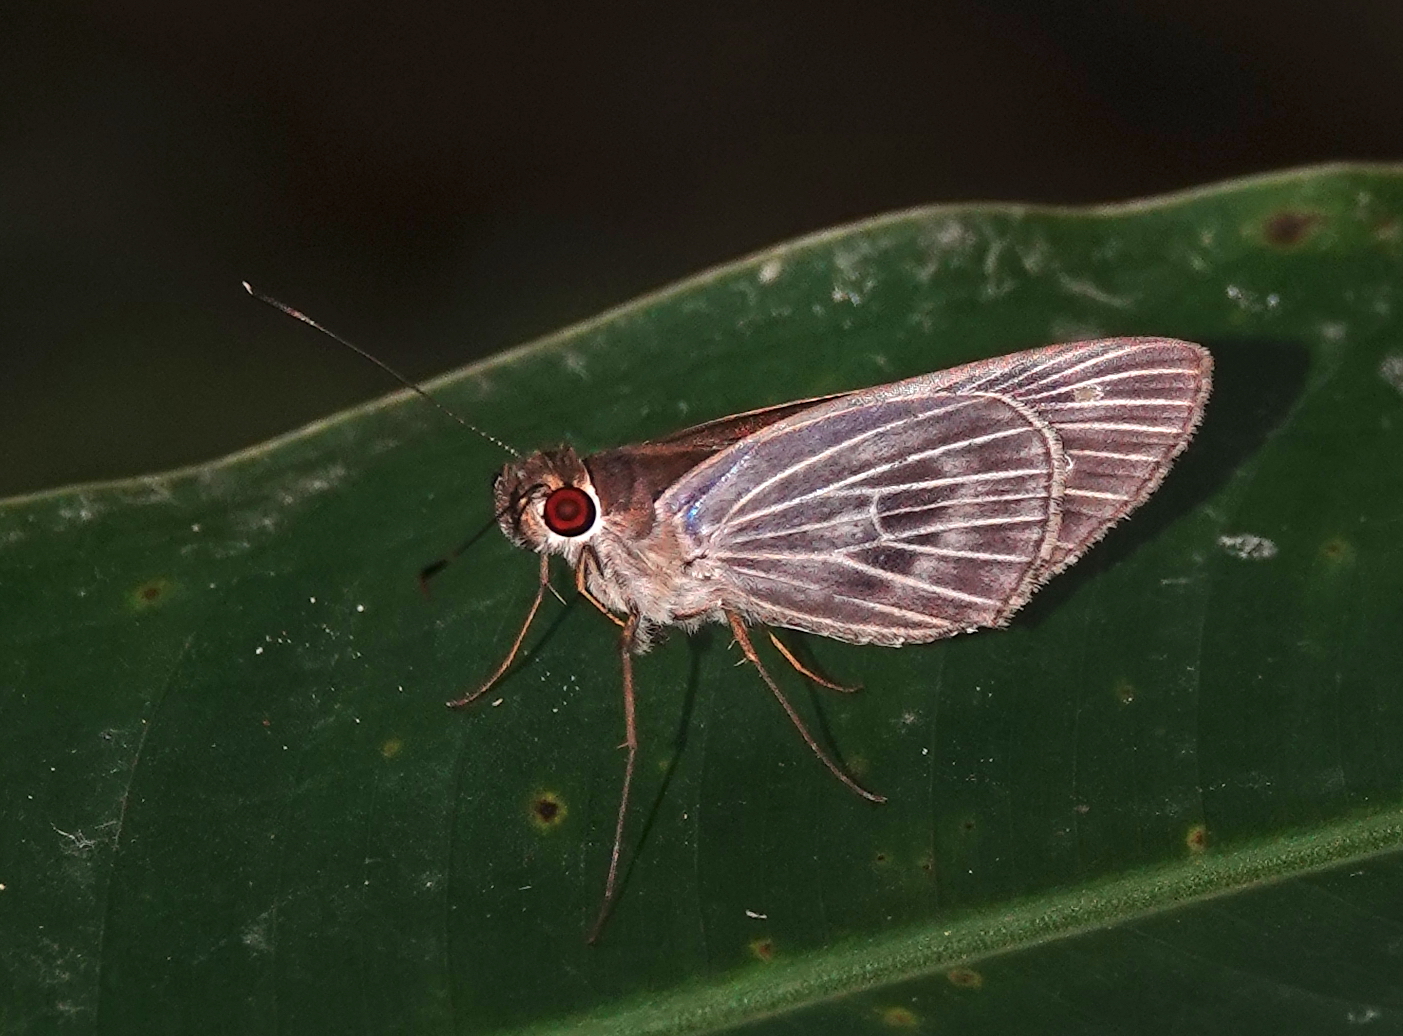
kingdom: Animalia
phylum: Arthropoda
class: Insecta
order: Lepidoptera
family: Hesperiidae
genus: Aecas
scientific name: Aecas aecas
